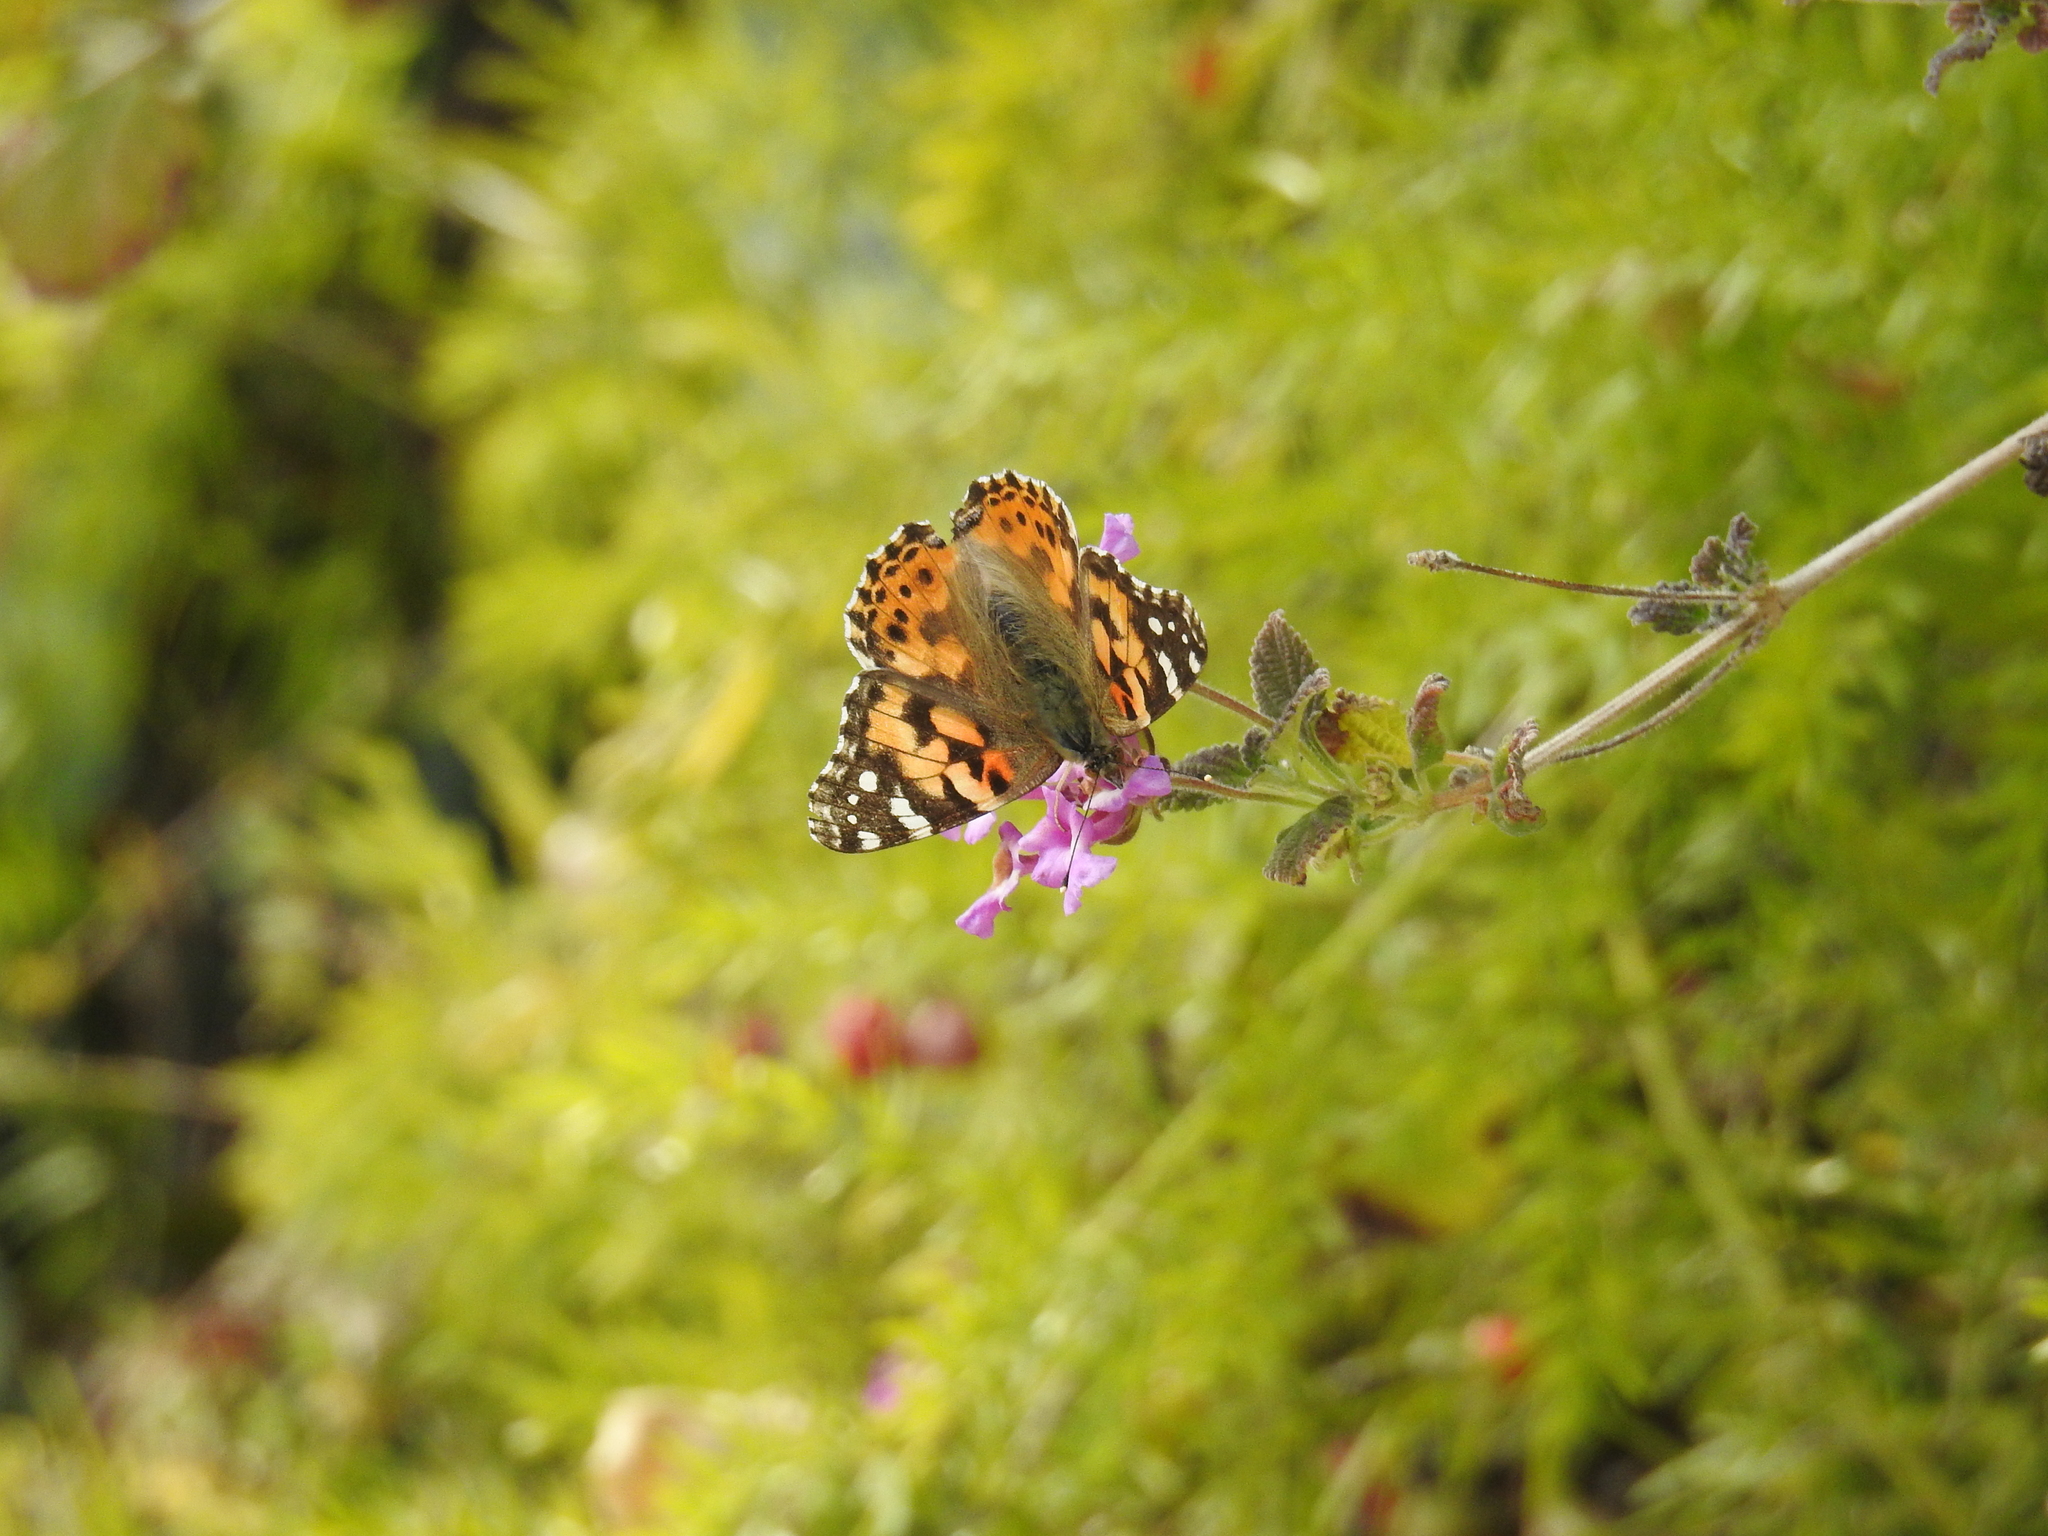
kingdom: Animalia
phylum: Arthropoda
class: Insecta
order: Lepidoptera
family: Nymphalidae
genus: Vanessa
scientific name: Vanessa cardui
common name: Painted lady
